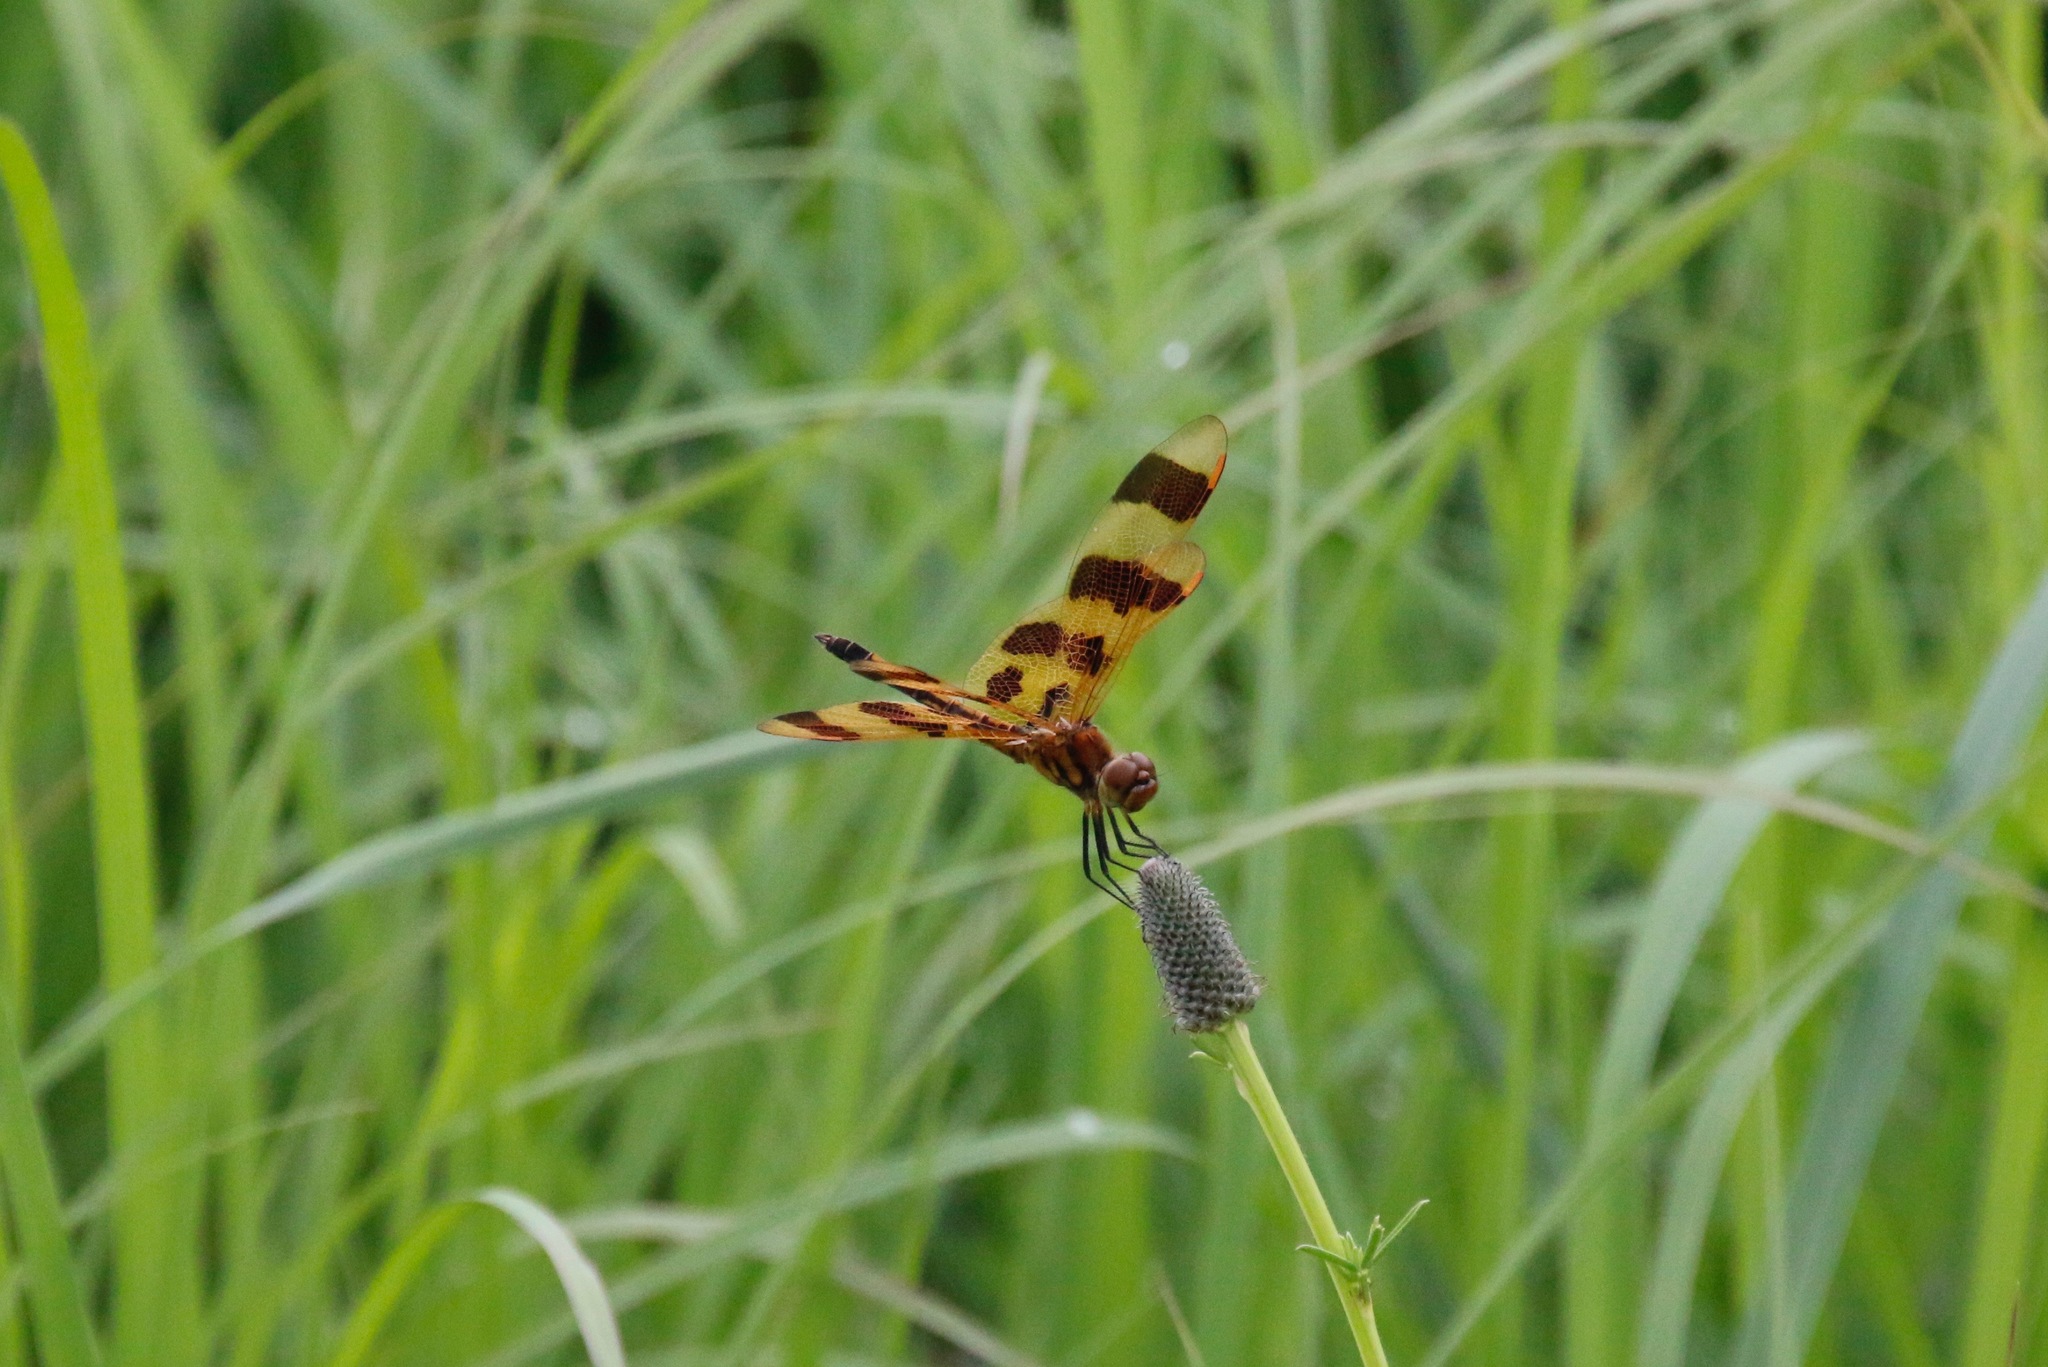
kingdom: Animalia
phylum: Arthropoda
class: Insecta
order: Odonata
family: Libellulidae
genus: Celithemis
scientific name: Celithemis eponina
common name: Halloween pennant
